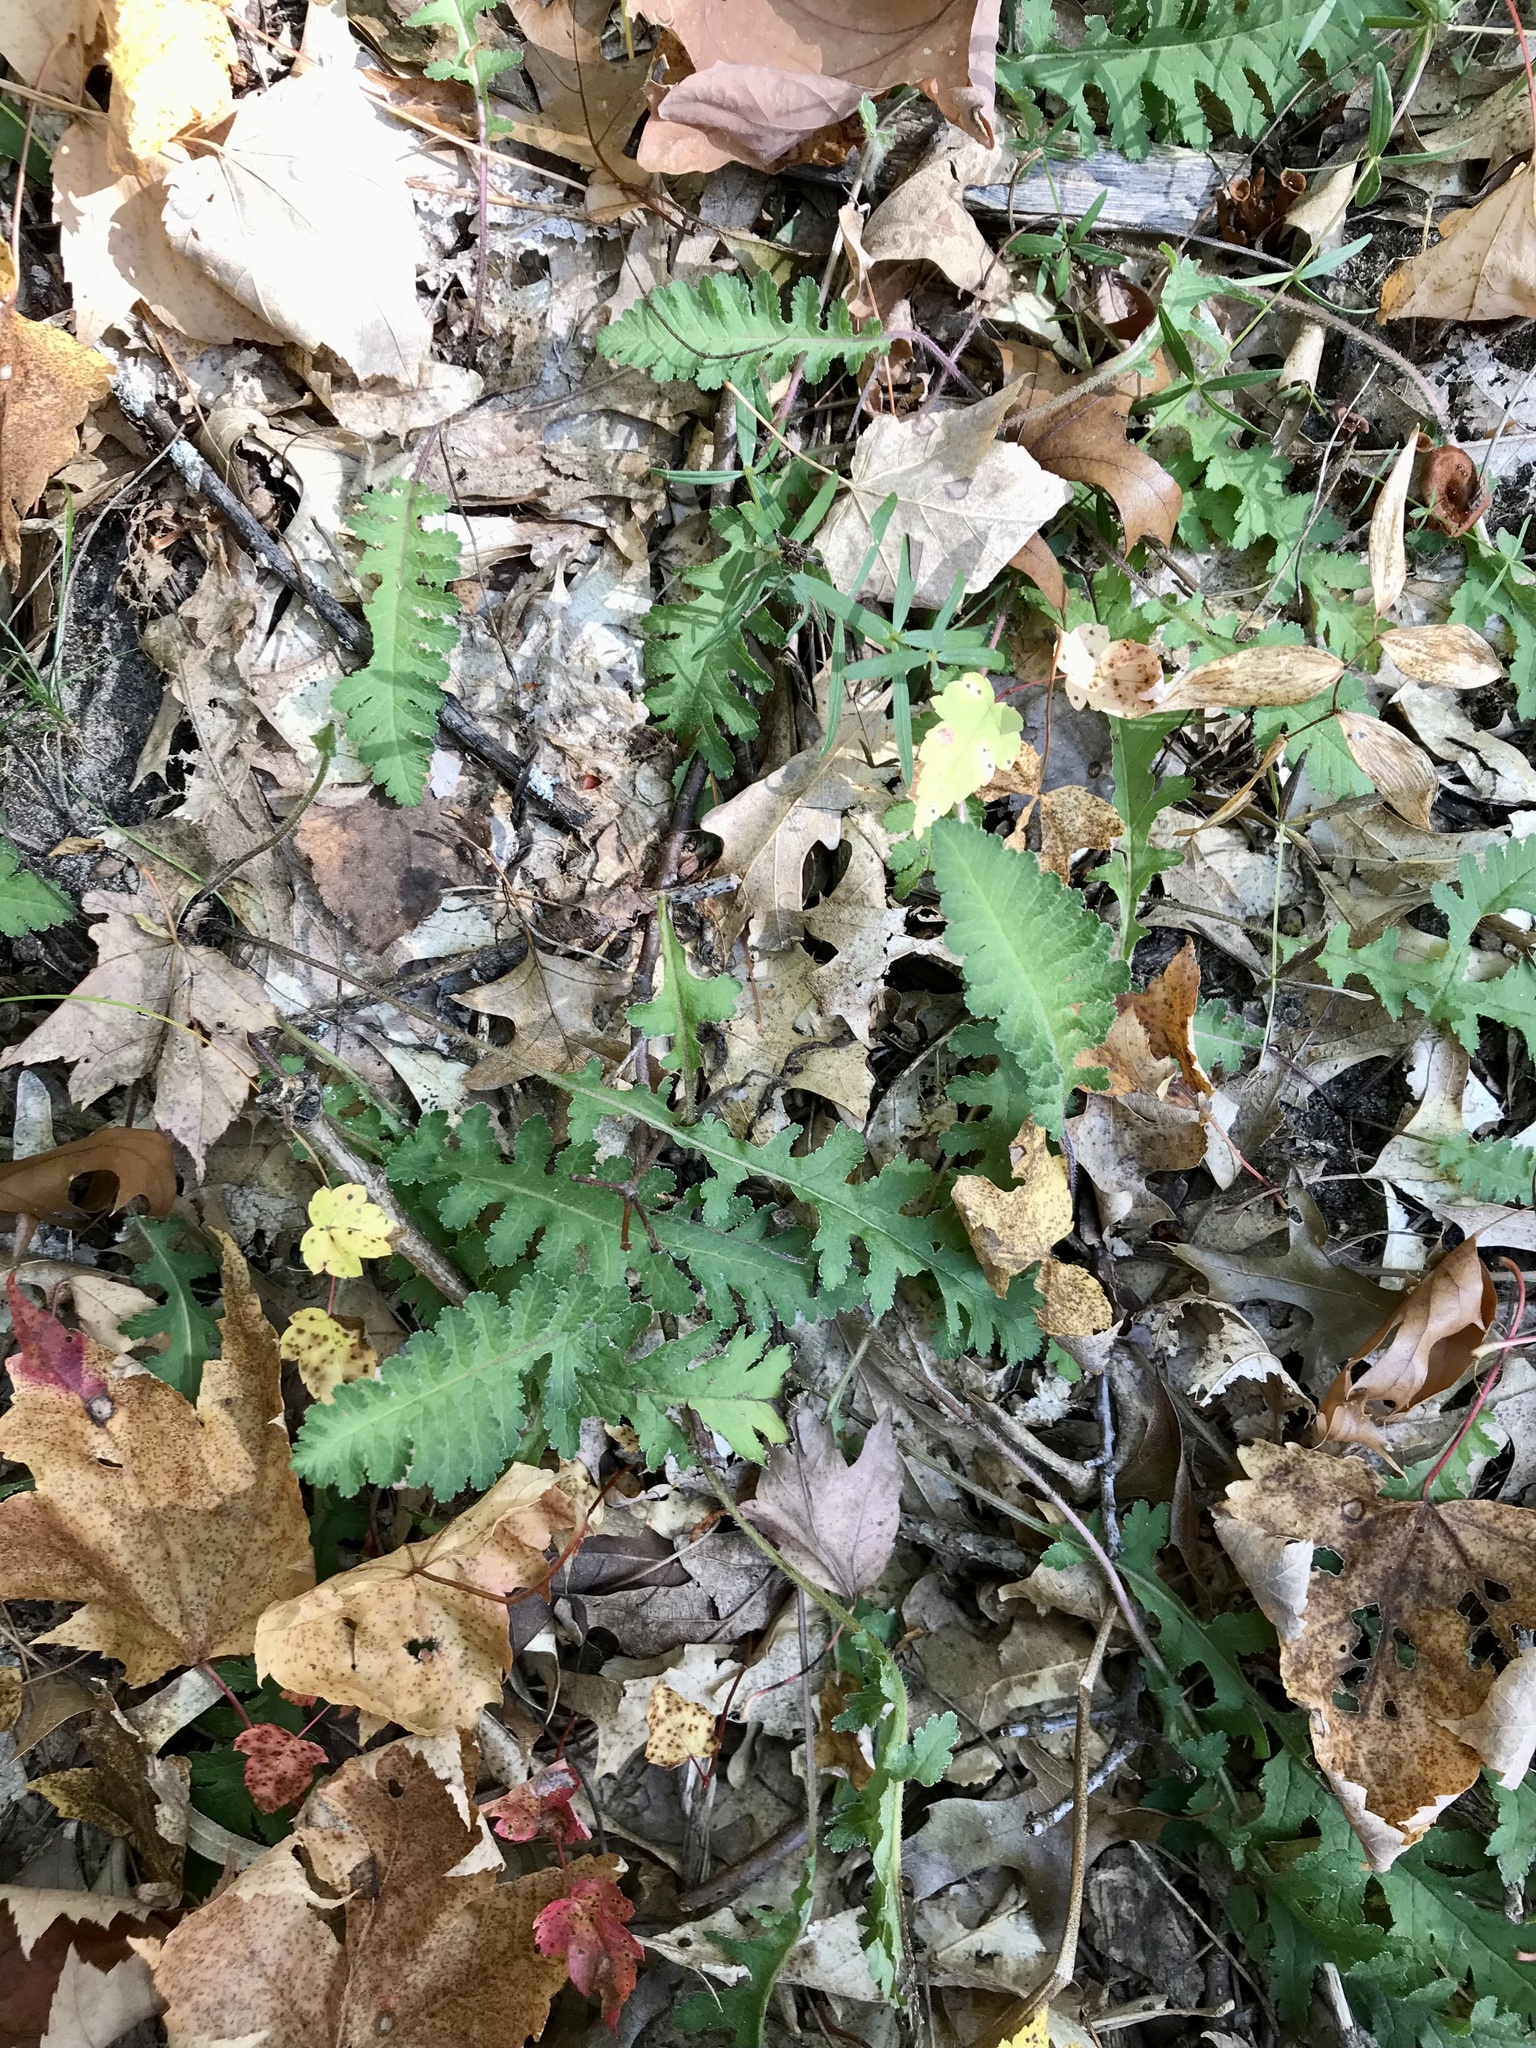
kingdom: Plantae
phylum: Tracheophyta
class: Magnoliopsida
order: Lamiales
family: Orobanchaceae
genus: Pedicularis
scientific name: Pedicularis canadensis
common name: Early lousewort
